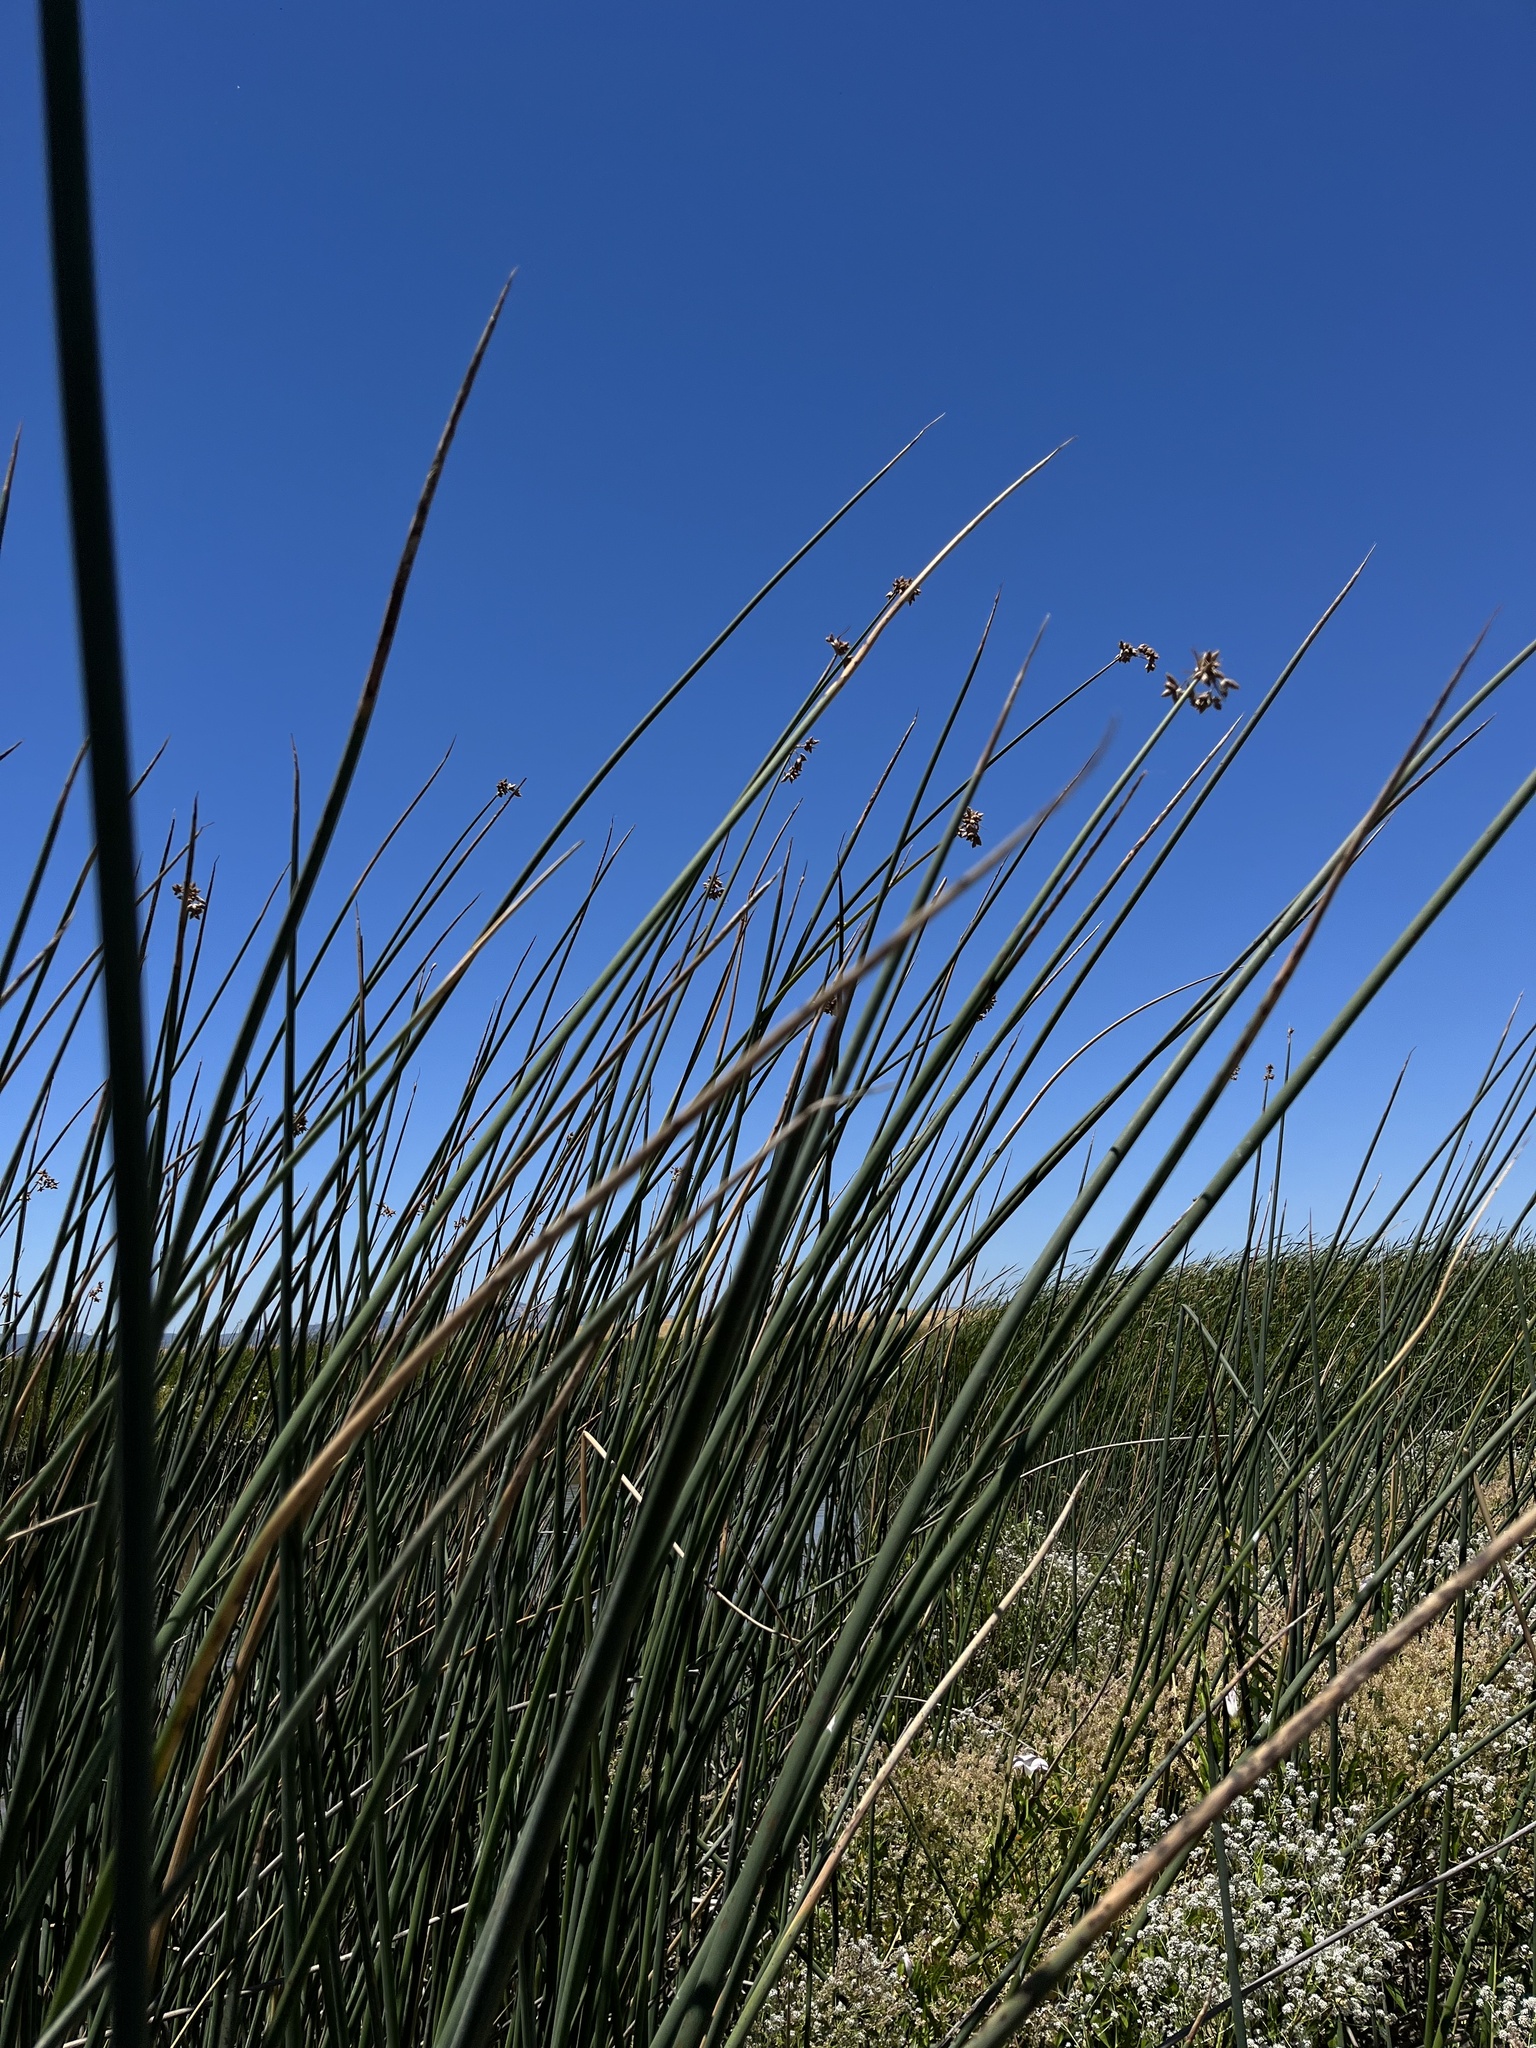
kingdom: Plantae
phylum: Tracheophyta
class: Liliopsida
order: Poales
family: Cyperaceae
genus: Schoenoplectus
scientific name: Schoenoplectus acutus
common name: Hardstem bulrush
